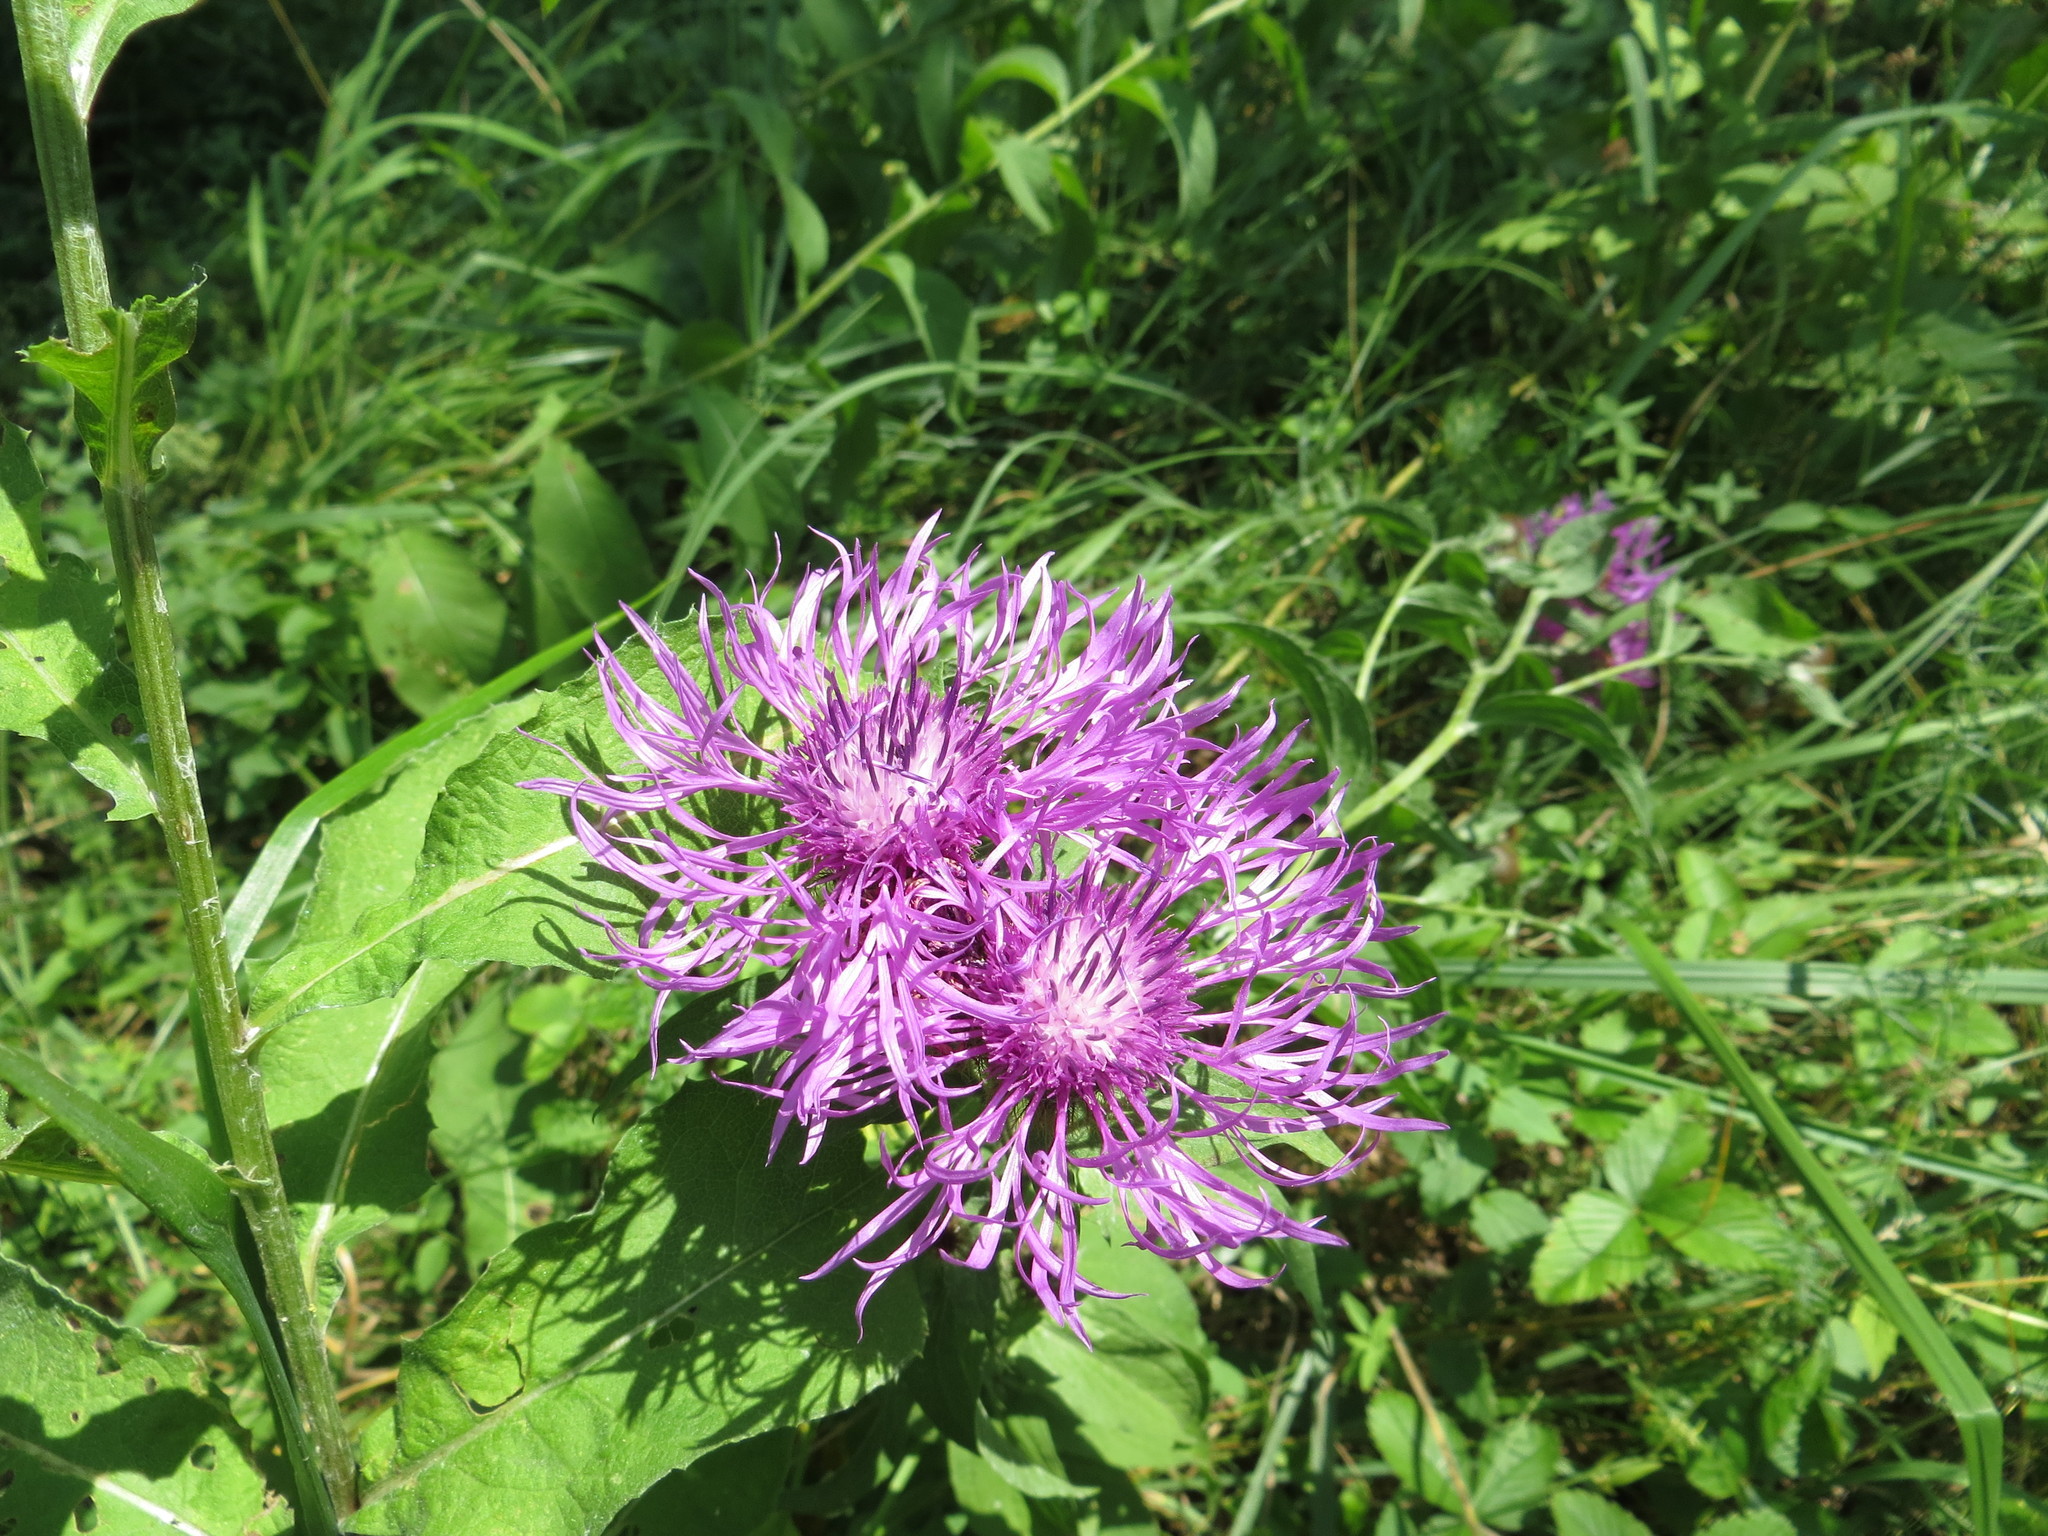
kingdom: Plantae
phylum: Tracheophyta
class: Magnoliopsida
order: Asterales
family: Asteraceae
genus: Centaurea
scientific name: Centaurea pseudophrygia
